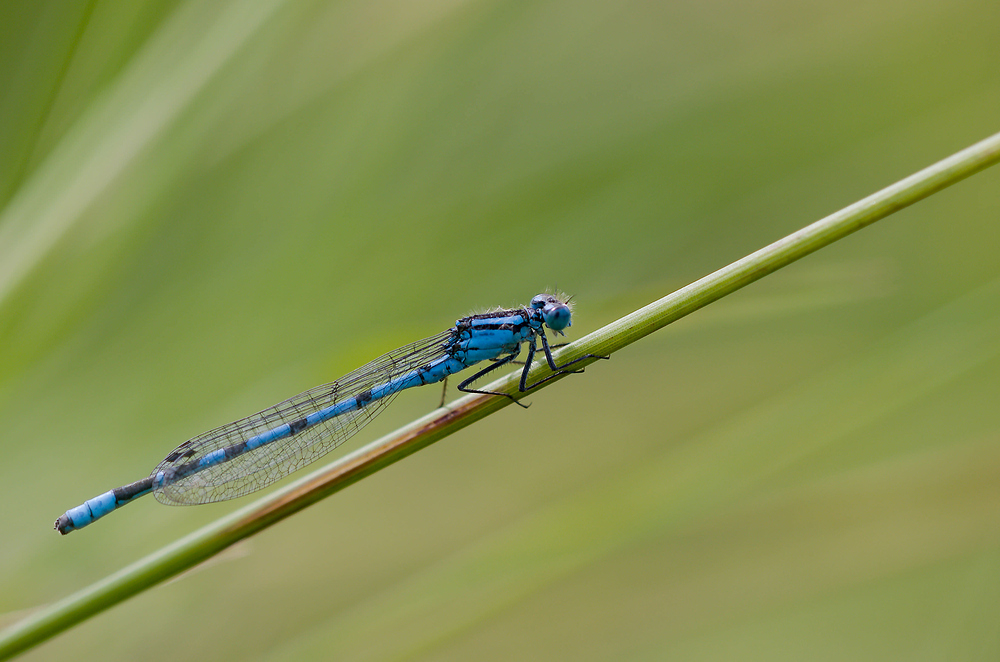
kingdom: Animalia
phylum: Arthropoda
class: Insecta
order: Odonata
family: Coenagrionidae
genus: Enallagma
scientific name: Enallagma cyathigerum
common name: Common blue damselfly
